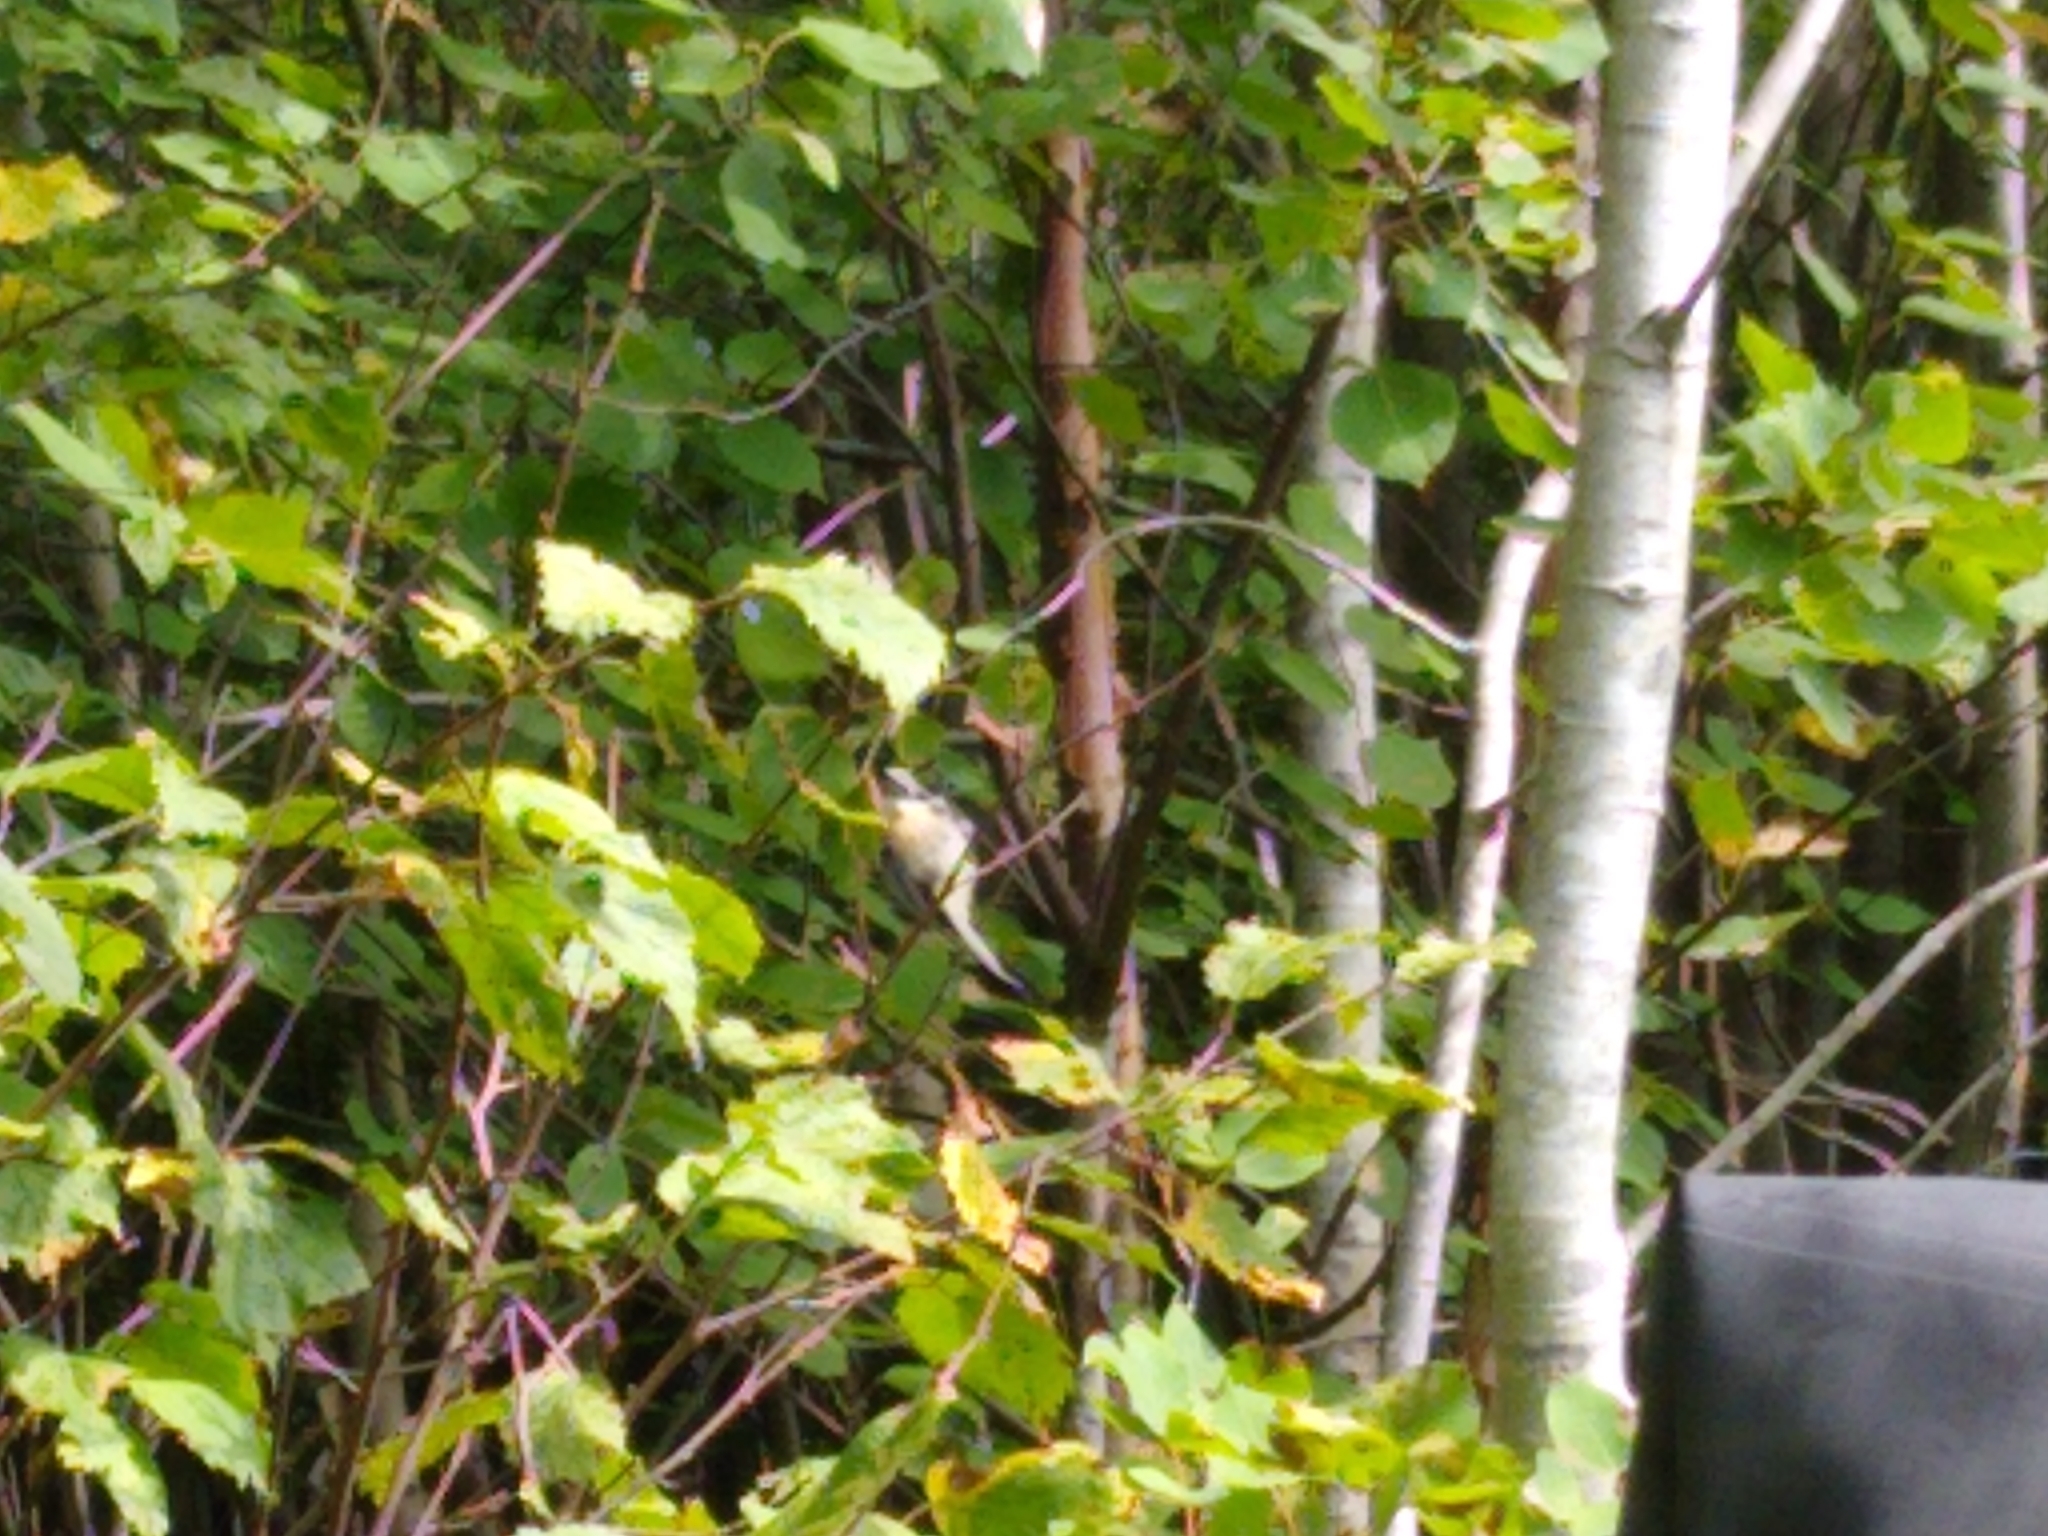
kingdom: Animalia
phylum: Chordata
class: Aves
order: Passeriformes
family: Paridae
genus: Poecile
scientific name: Poecile atricapillus
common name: Black-capped chickadee
